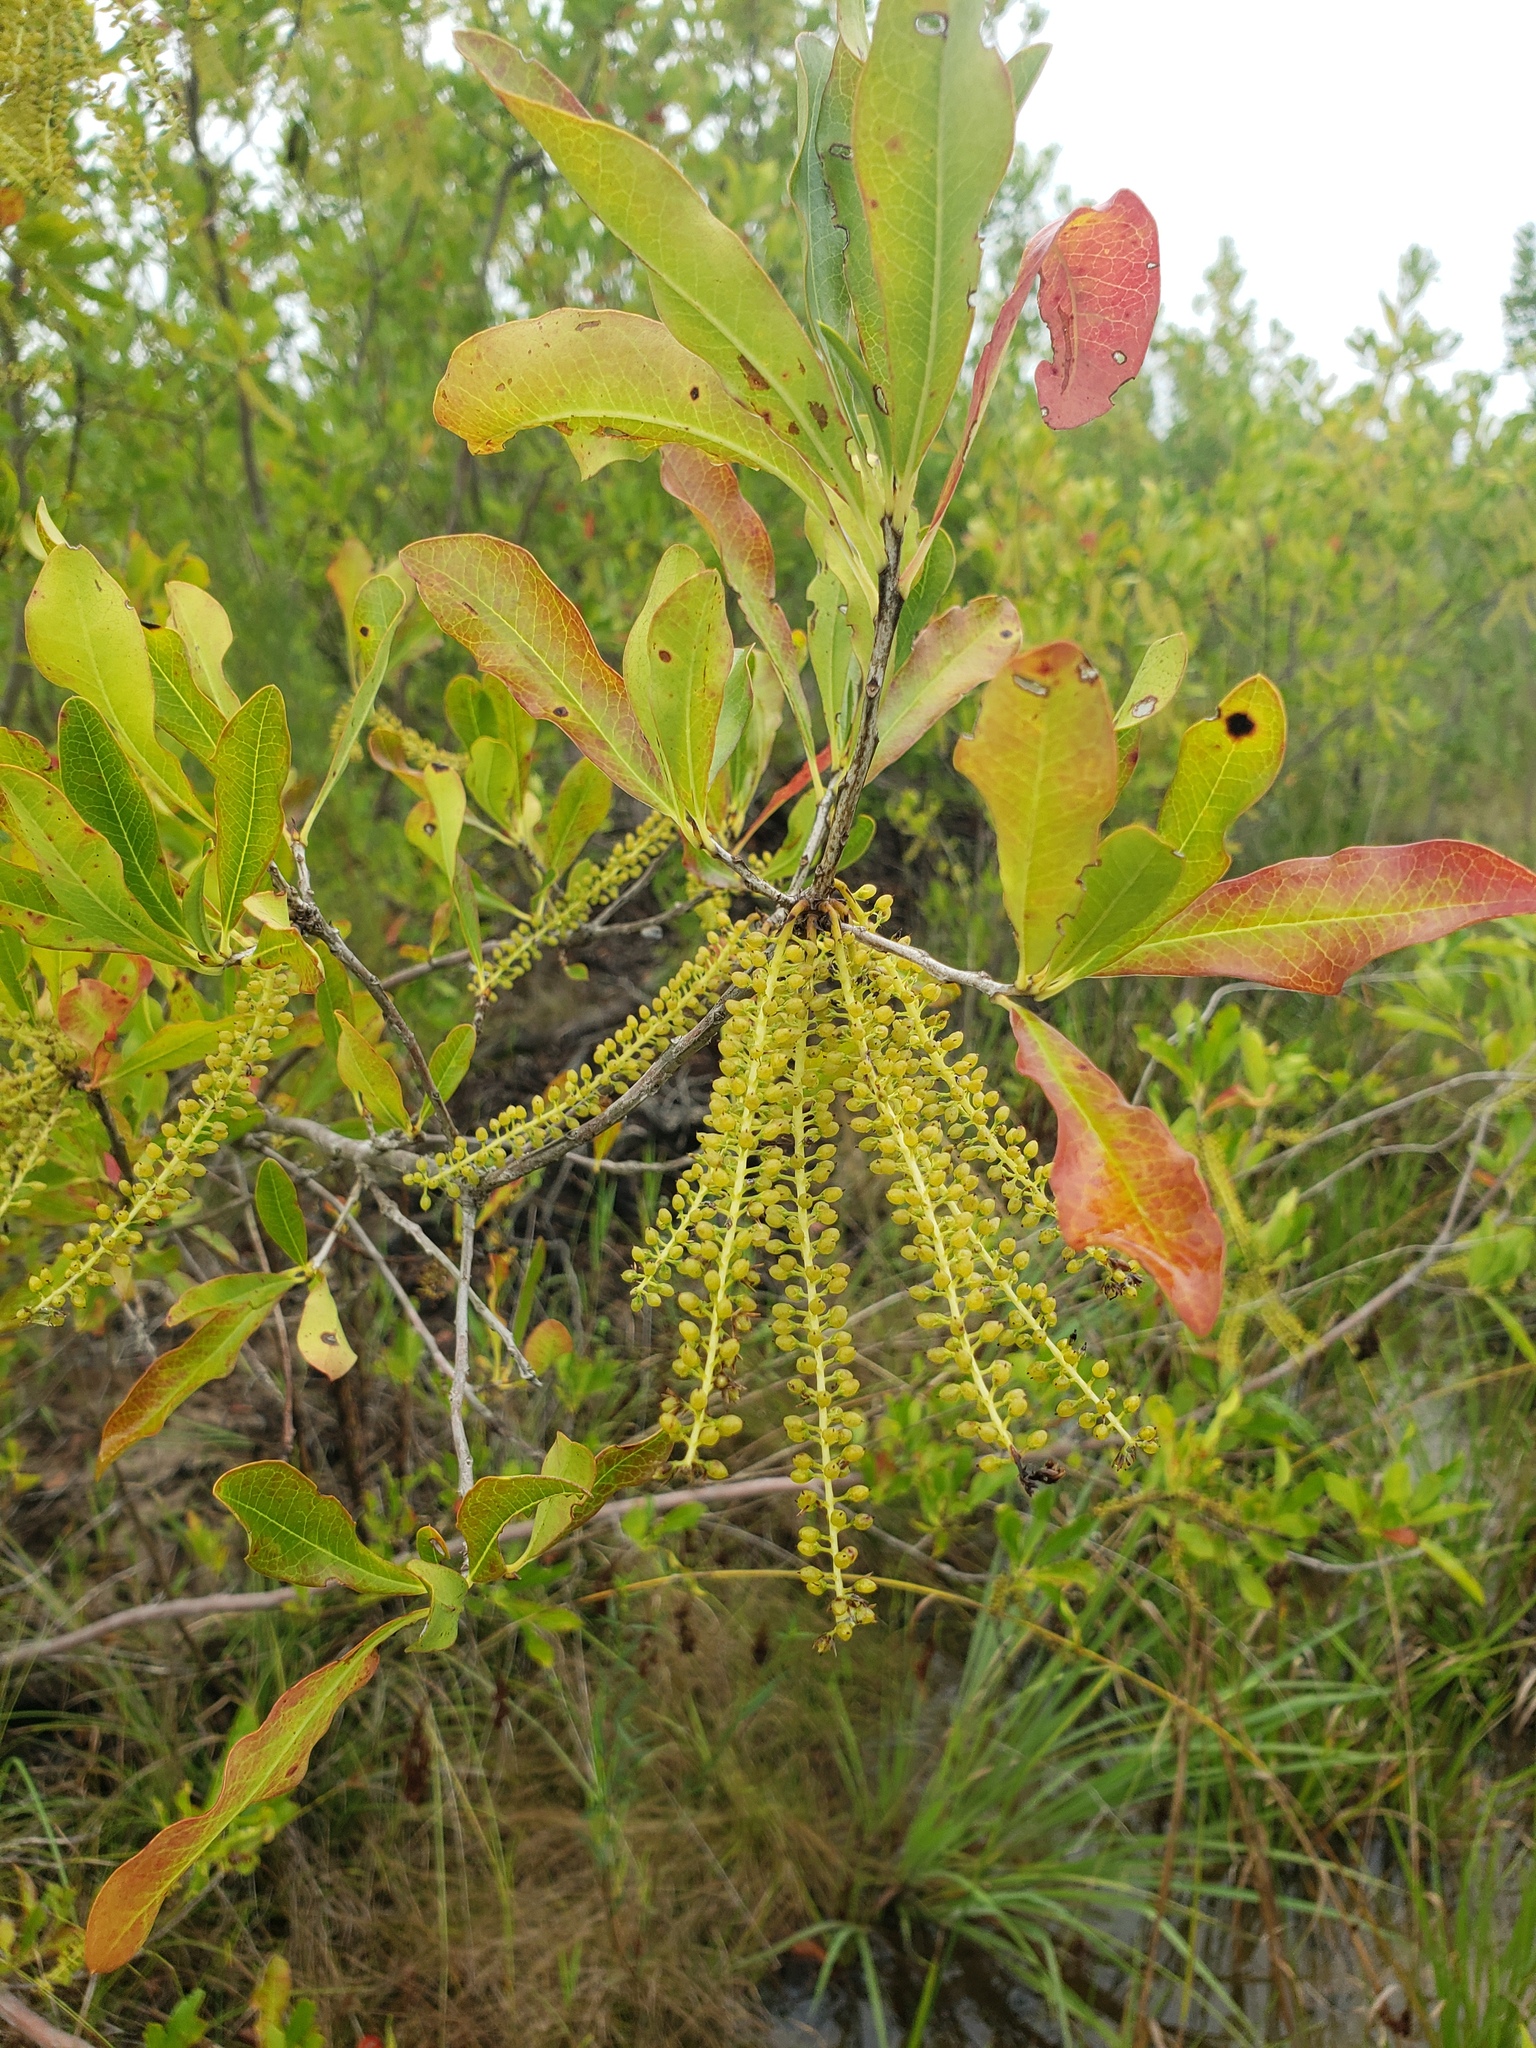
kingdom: Plantae
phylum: Tracheophyta
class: Magnoliopsida
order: Ericales
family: Cyrillaceae
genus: Cyrilla
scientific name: Cyrilla racemiflora
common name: Black titi
